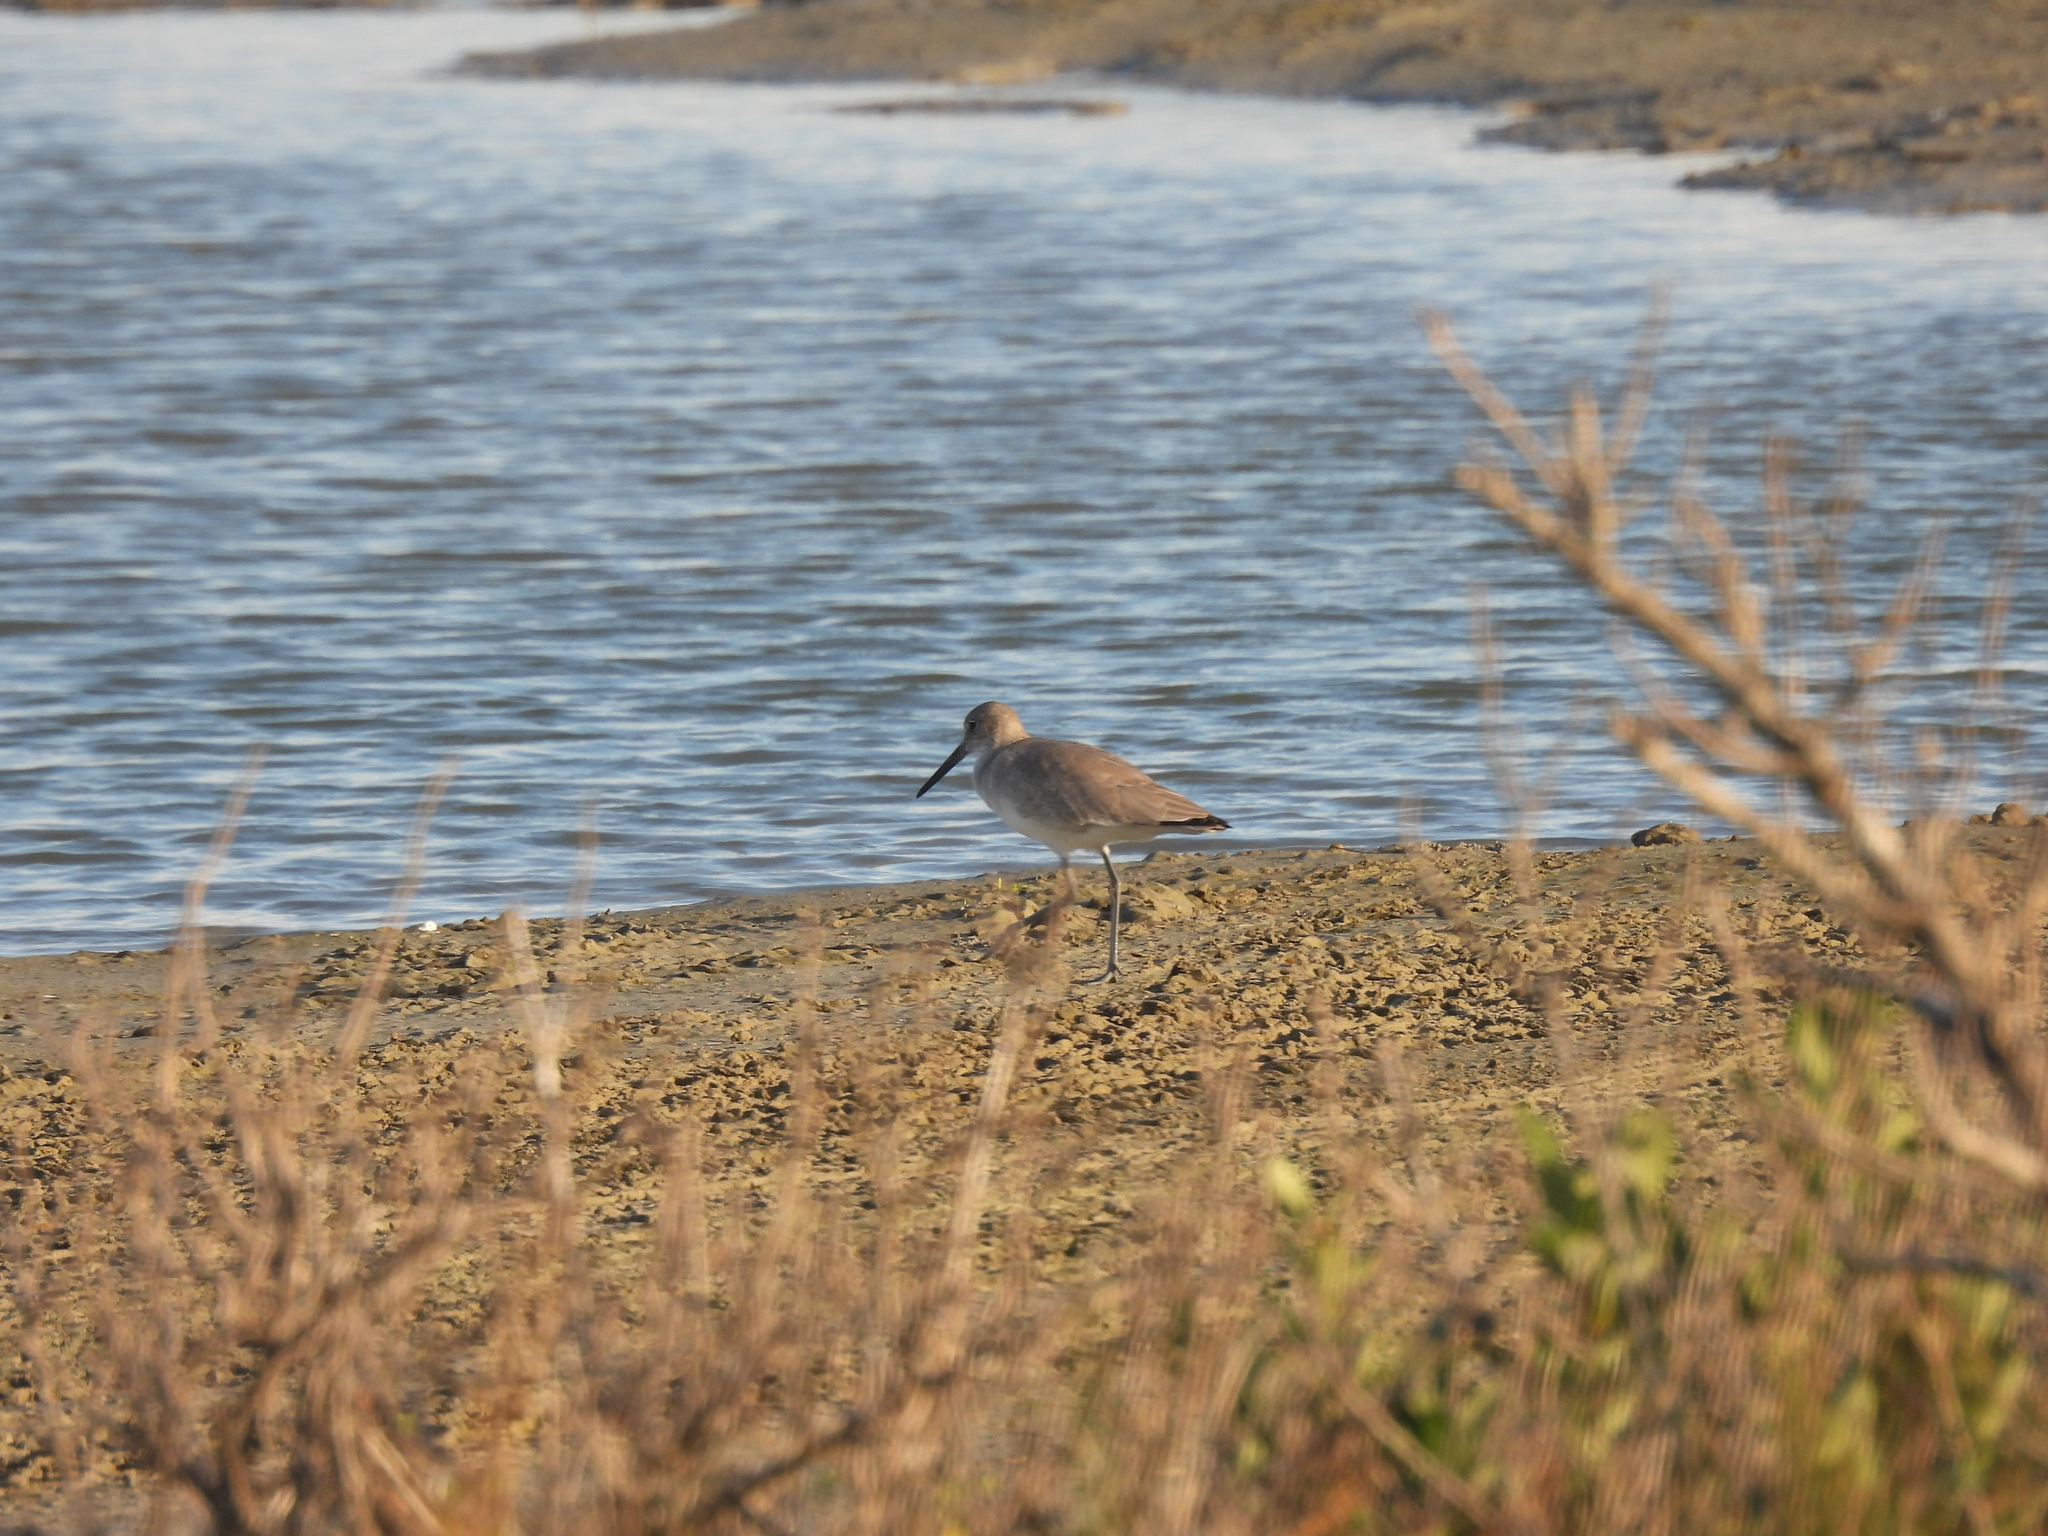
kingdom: Animalia
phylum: Chordata
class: Aves
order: Charadriiformes
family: Scolopacidae
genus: Tringa
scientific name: Tringa semipalmata
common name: Willet
